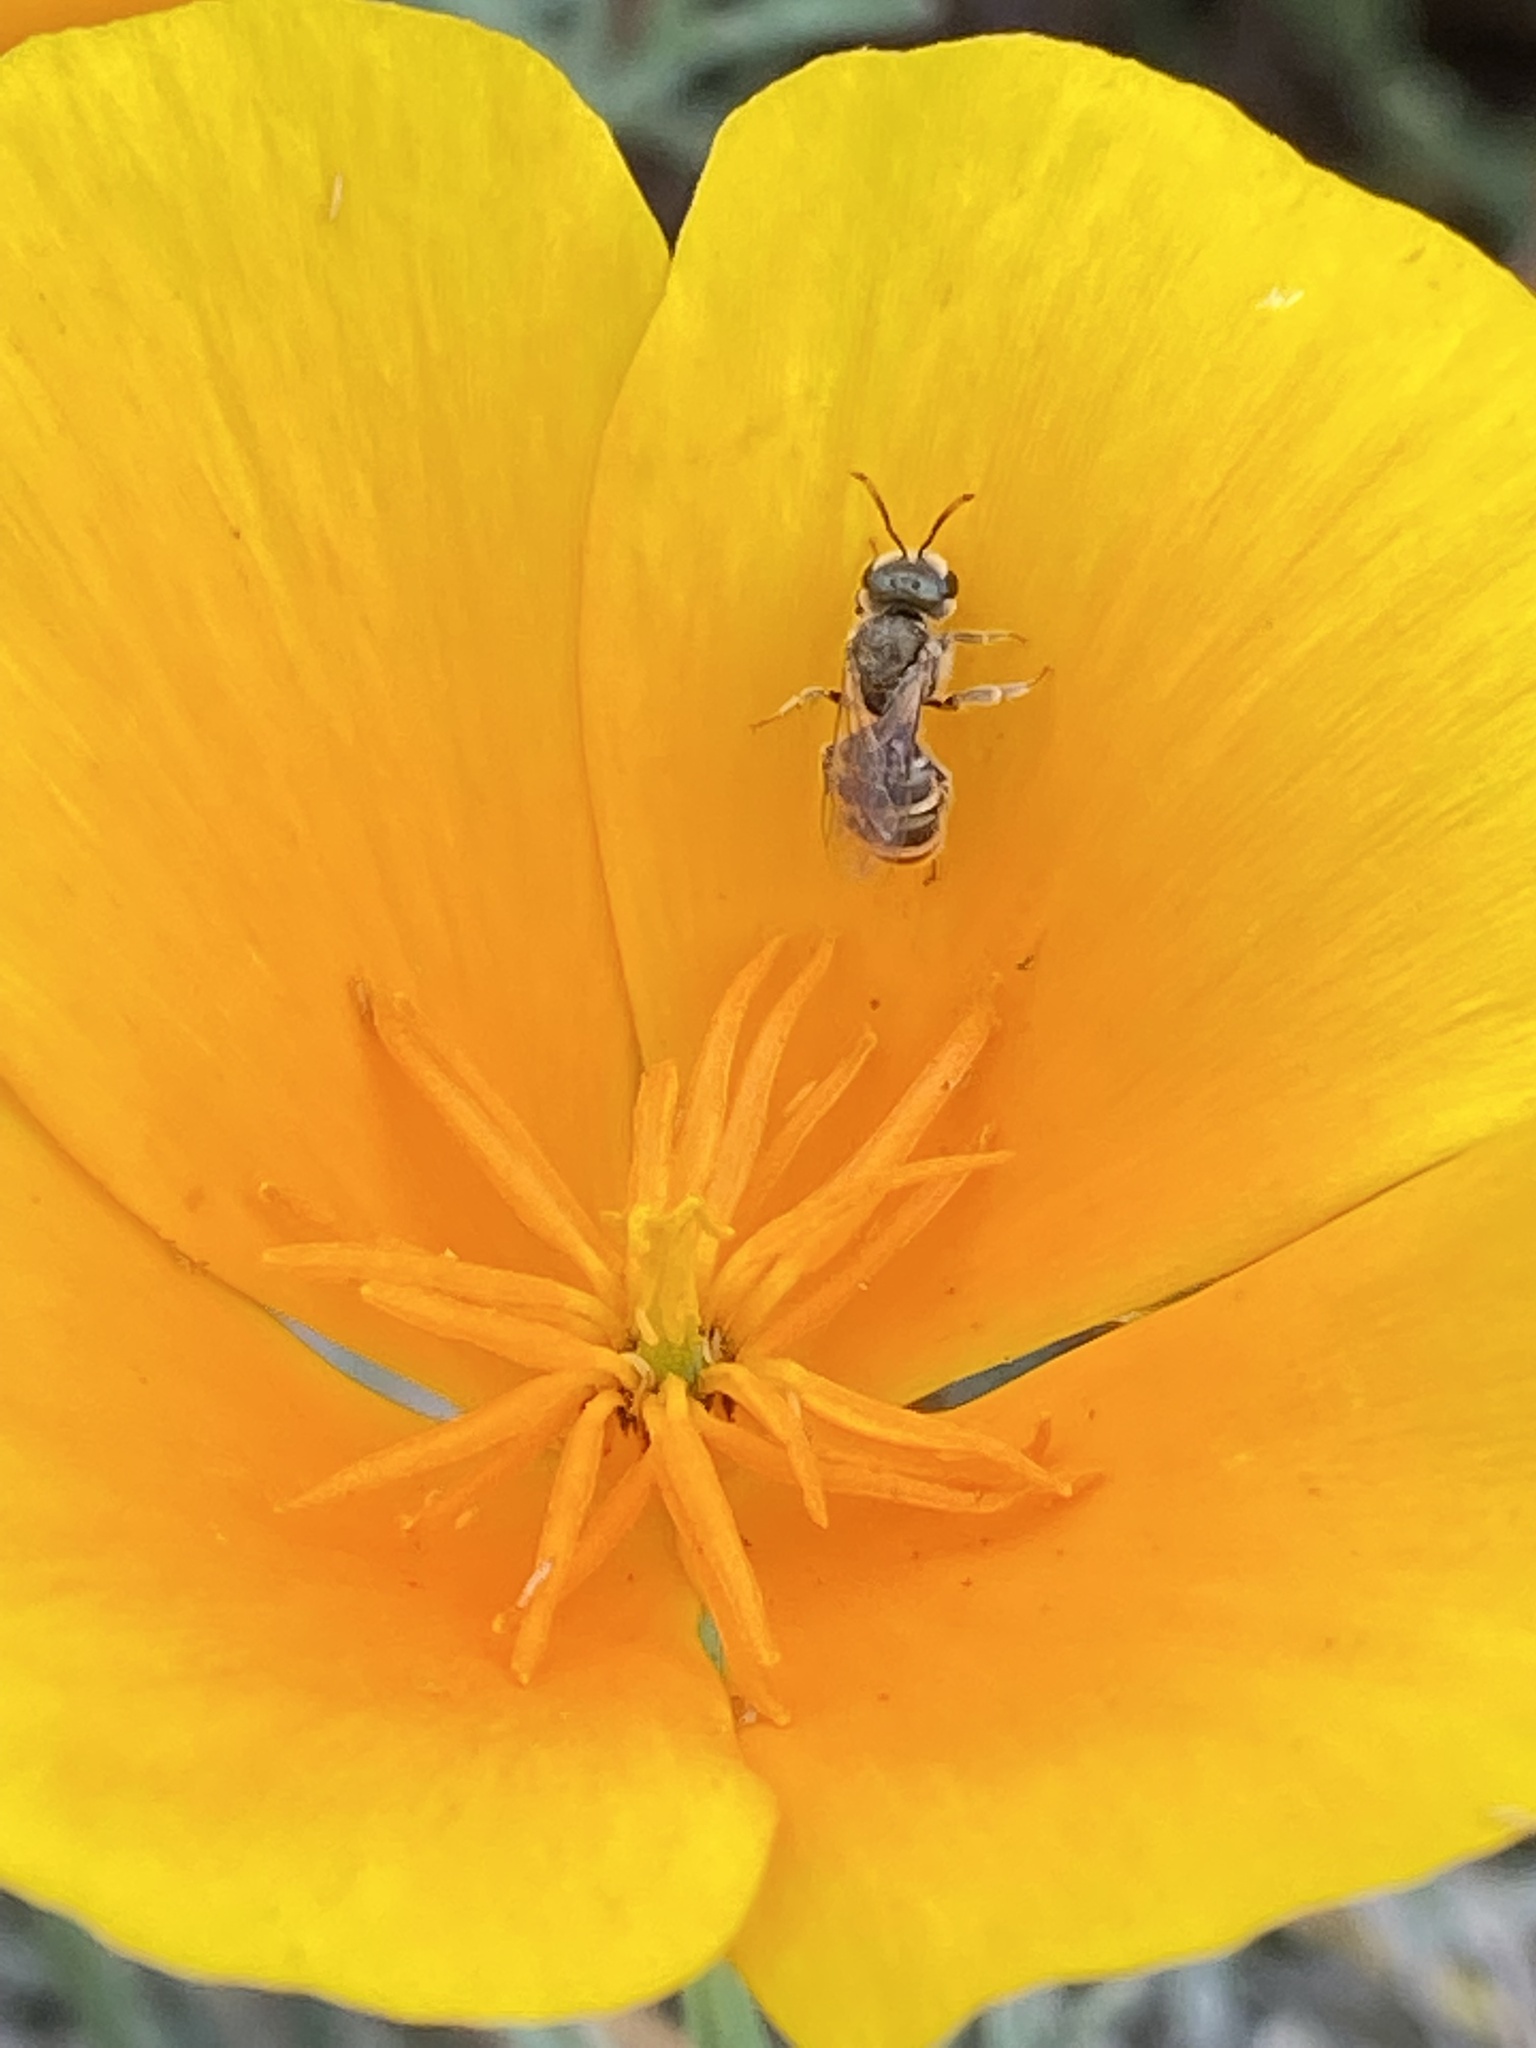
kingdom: Animalia
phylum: Arthropoda
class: Insecta
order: Hymenoptera
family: Halictidae
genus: Halictus
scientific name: Halictus tripartitus
